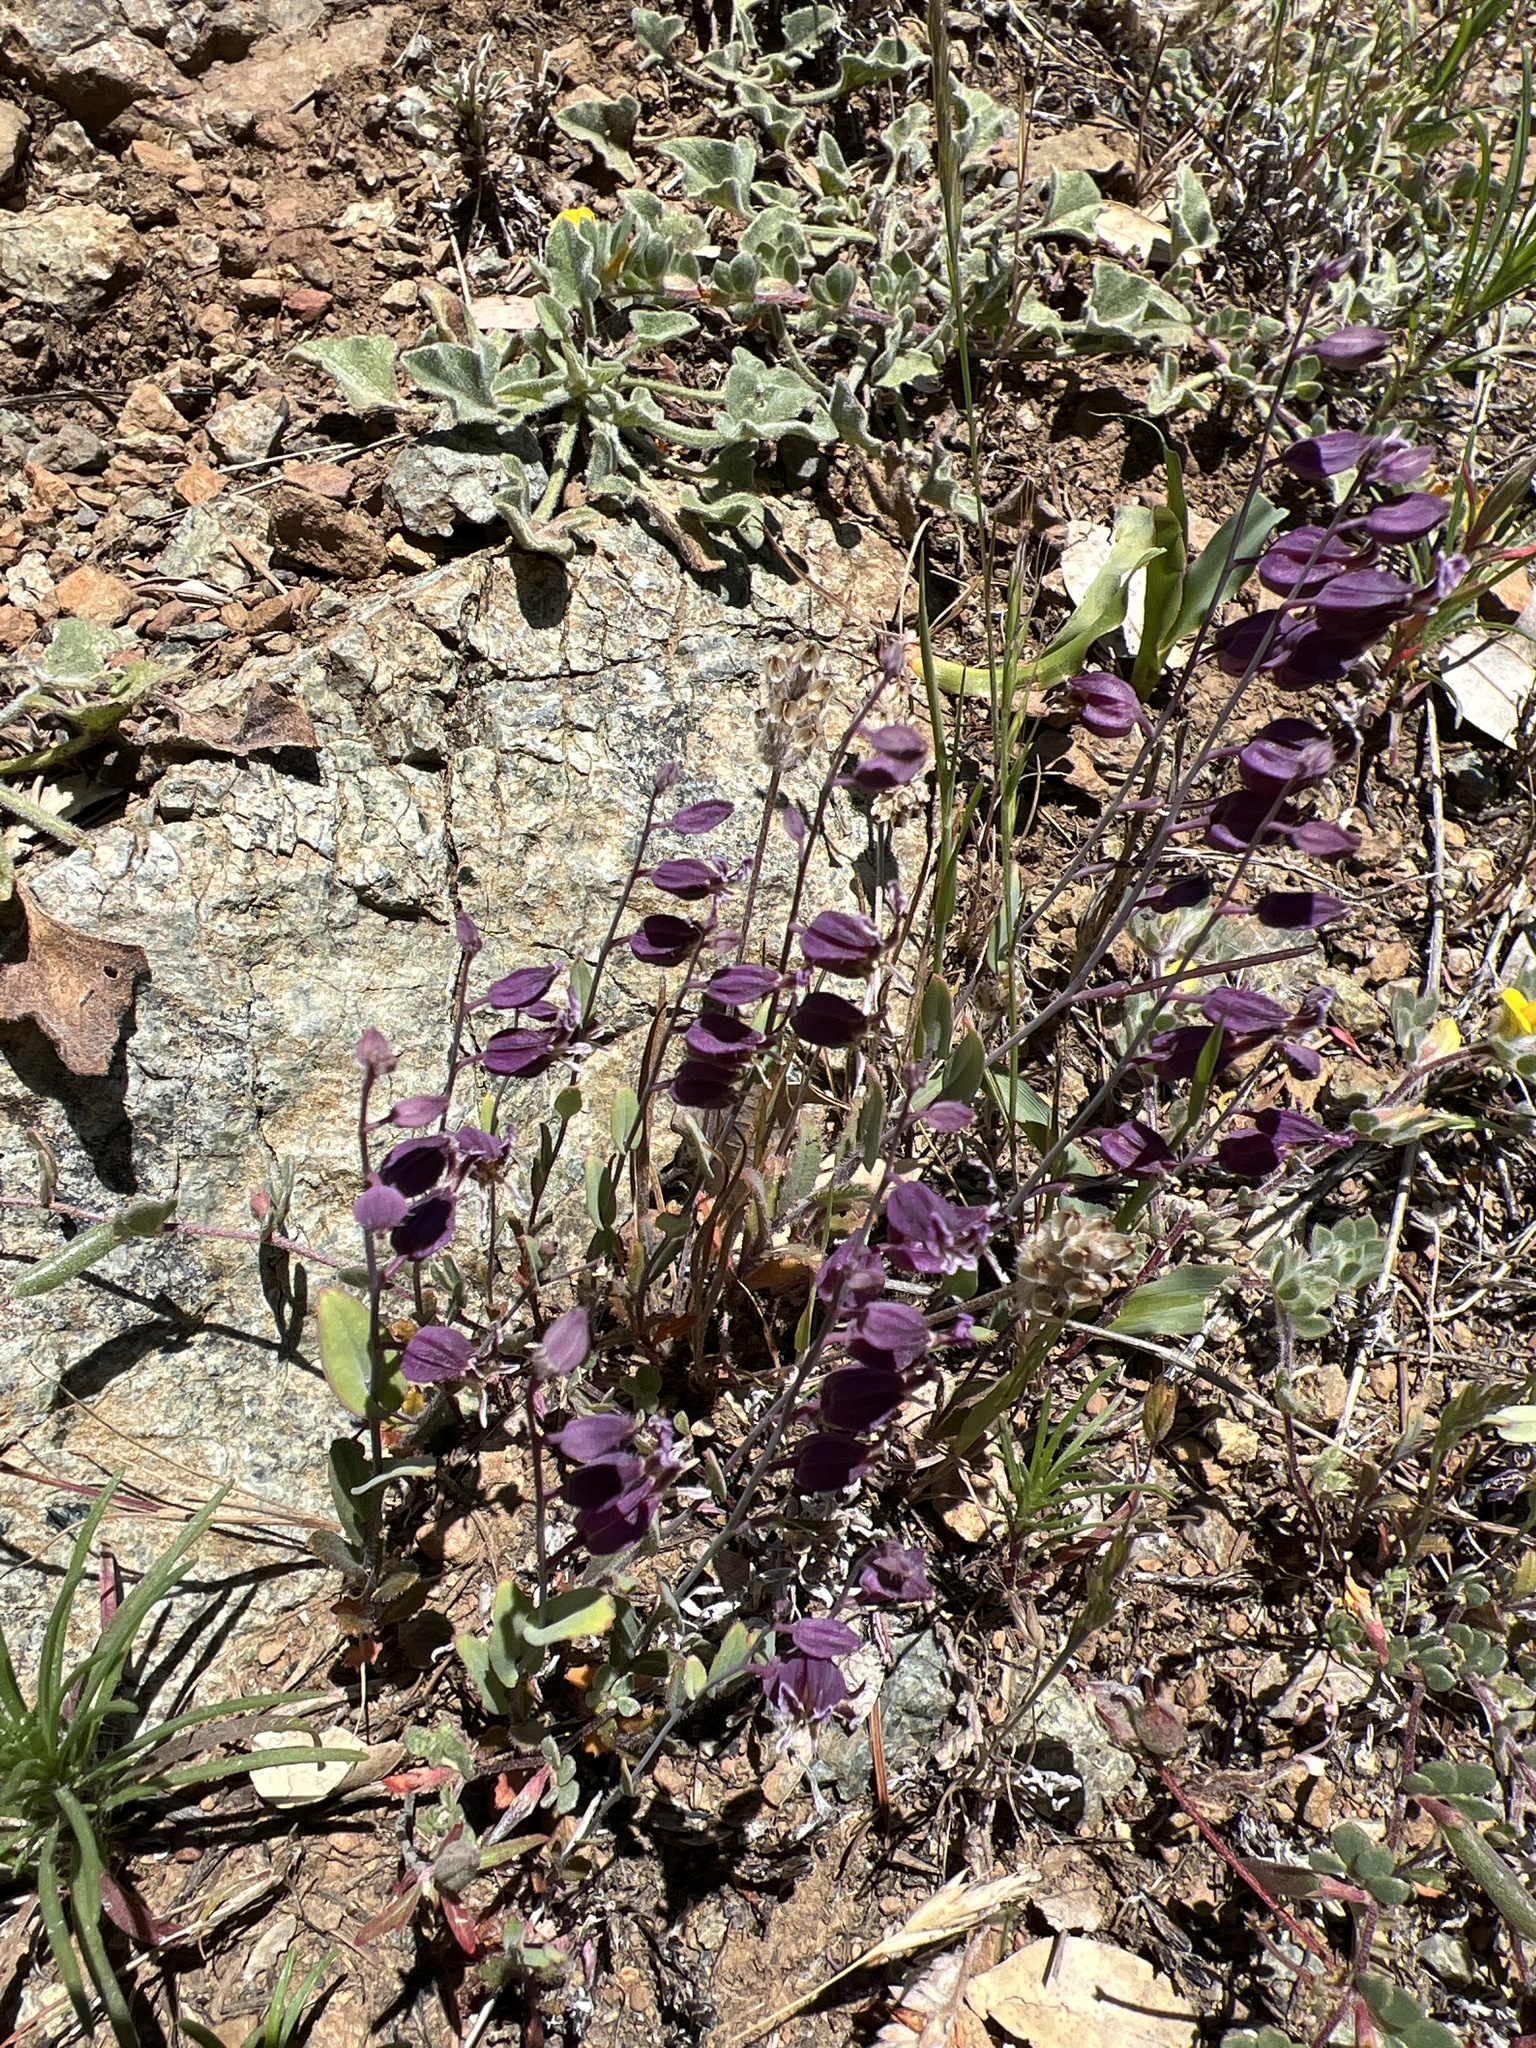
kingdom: Plantae
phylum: Tracheophyta
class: Magnoliopsida
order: Brassicales
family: Brassicaceae
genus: Streptanthus
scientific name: Streptanthus glandulosus
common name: Jewel-flower
